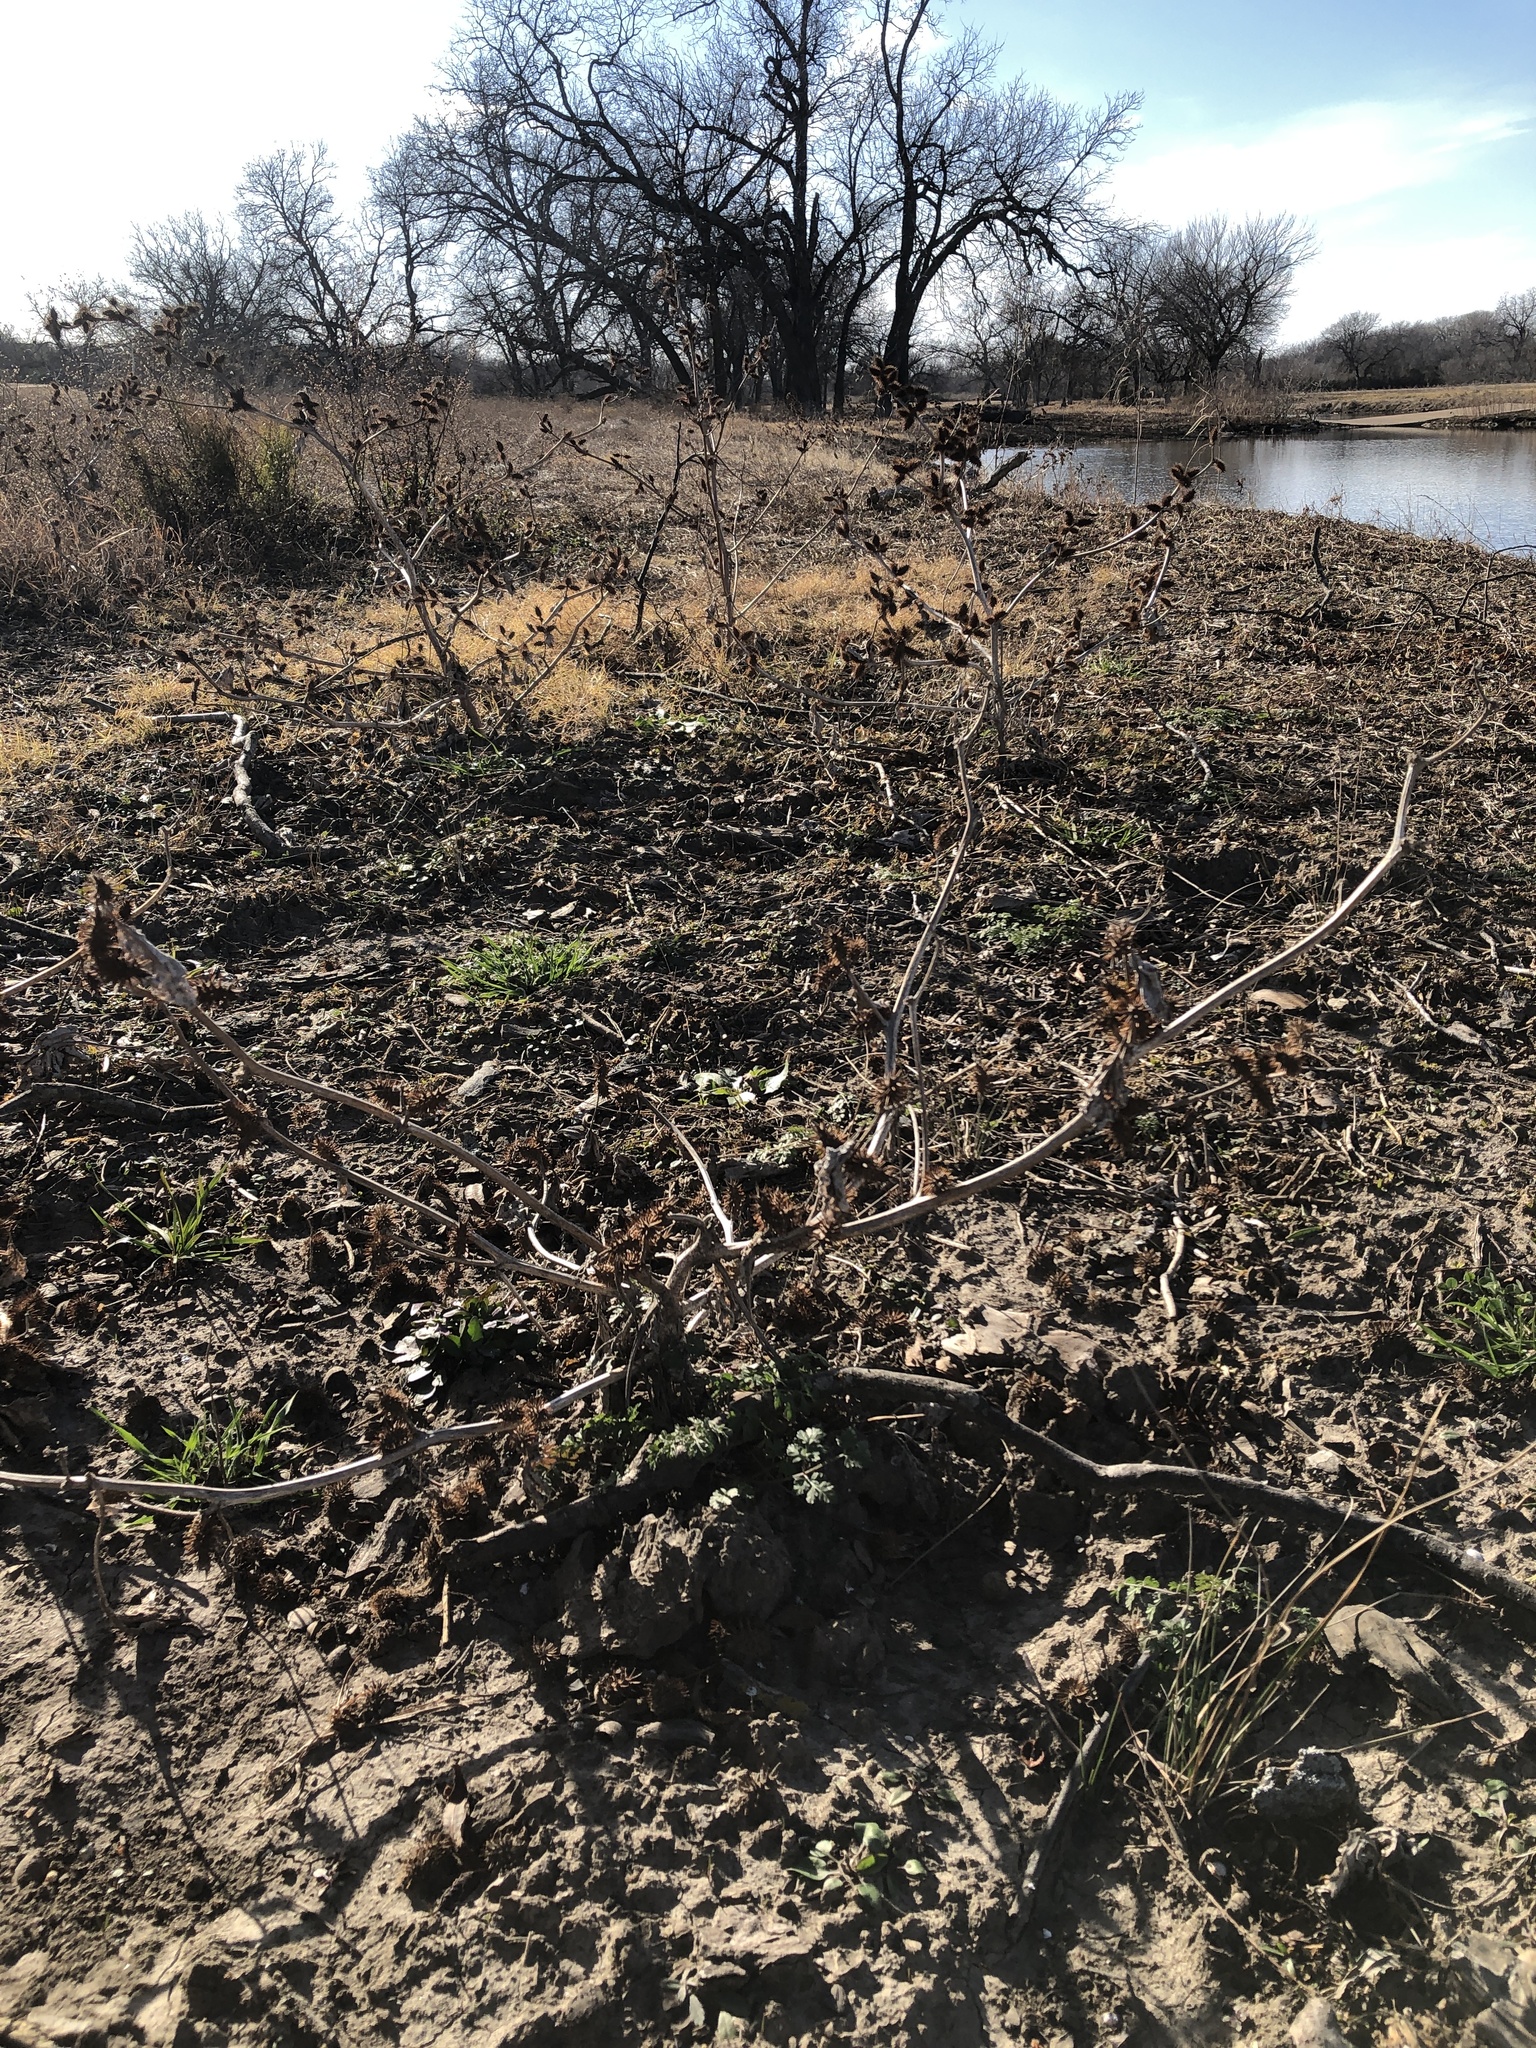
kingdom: Plantae
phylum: Tracheophyta
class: Magnoliopsida
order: Asterales
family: Asteraceae
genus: Xanthium
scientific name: Xanthium strumarium
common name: Rough cocklebur
